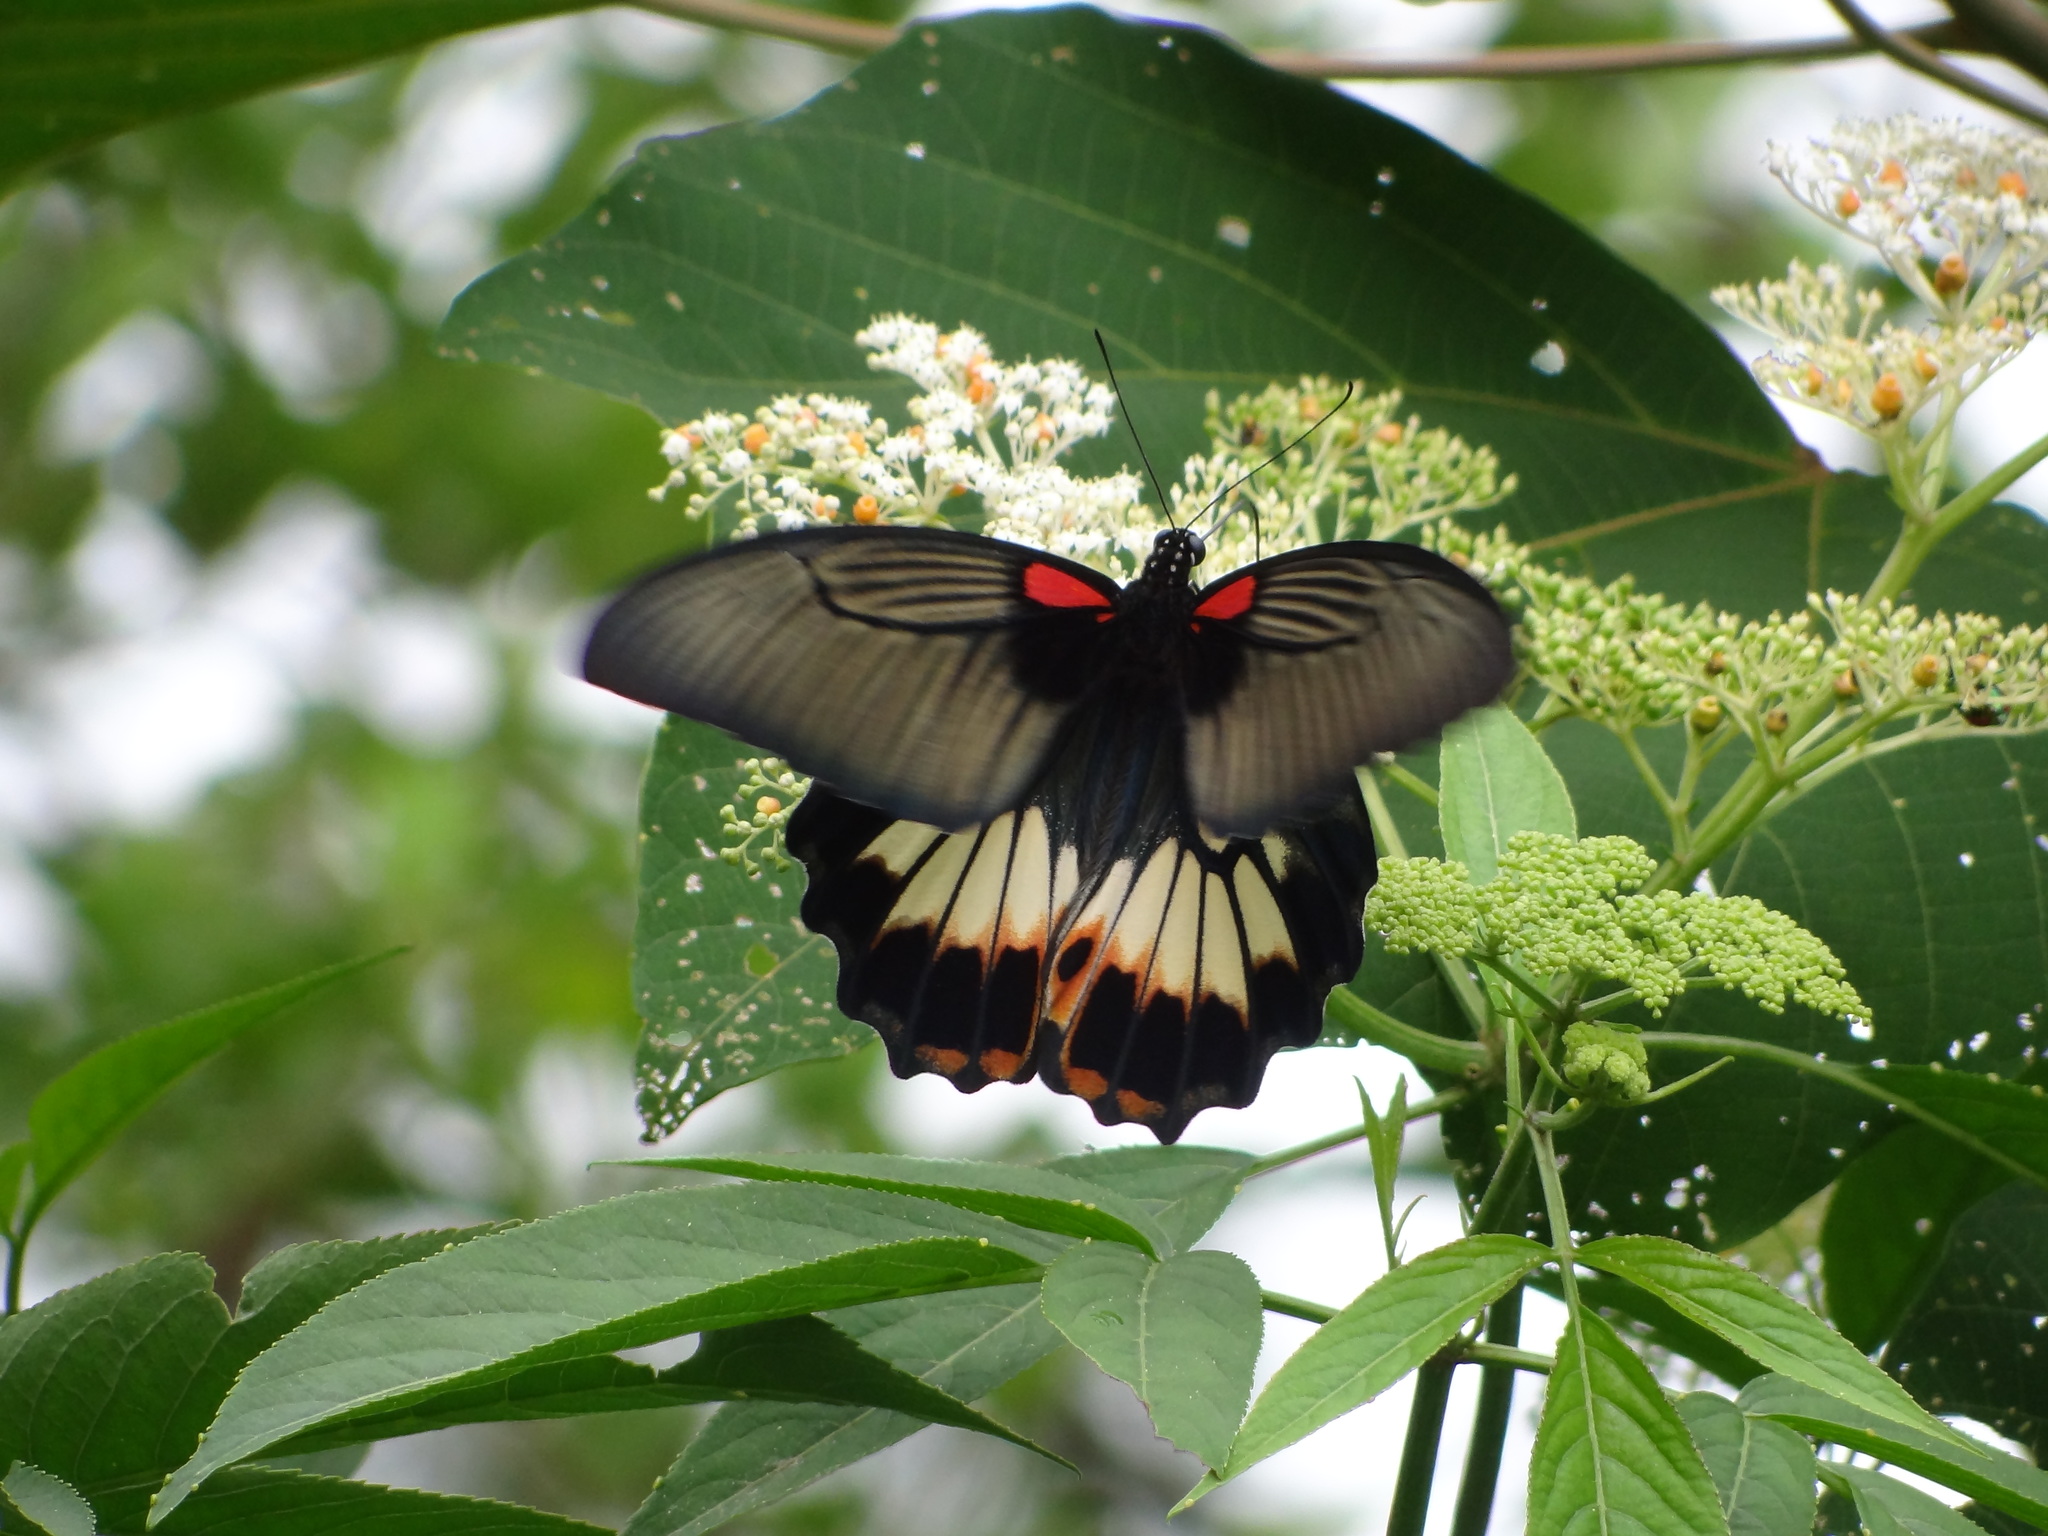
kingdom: Animalia
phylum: Arthropoda
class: Insecta
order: Lepidoptera
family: Papilionidae
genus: Papilio
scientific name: Papilio memnon
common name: Great mormon
